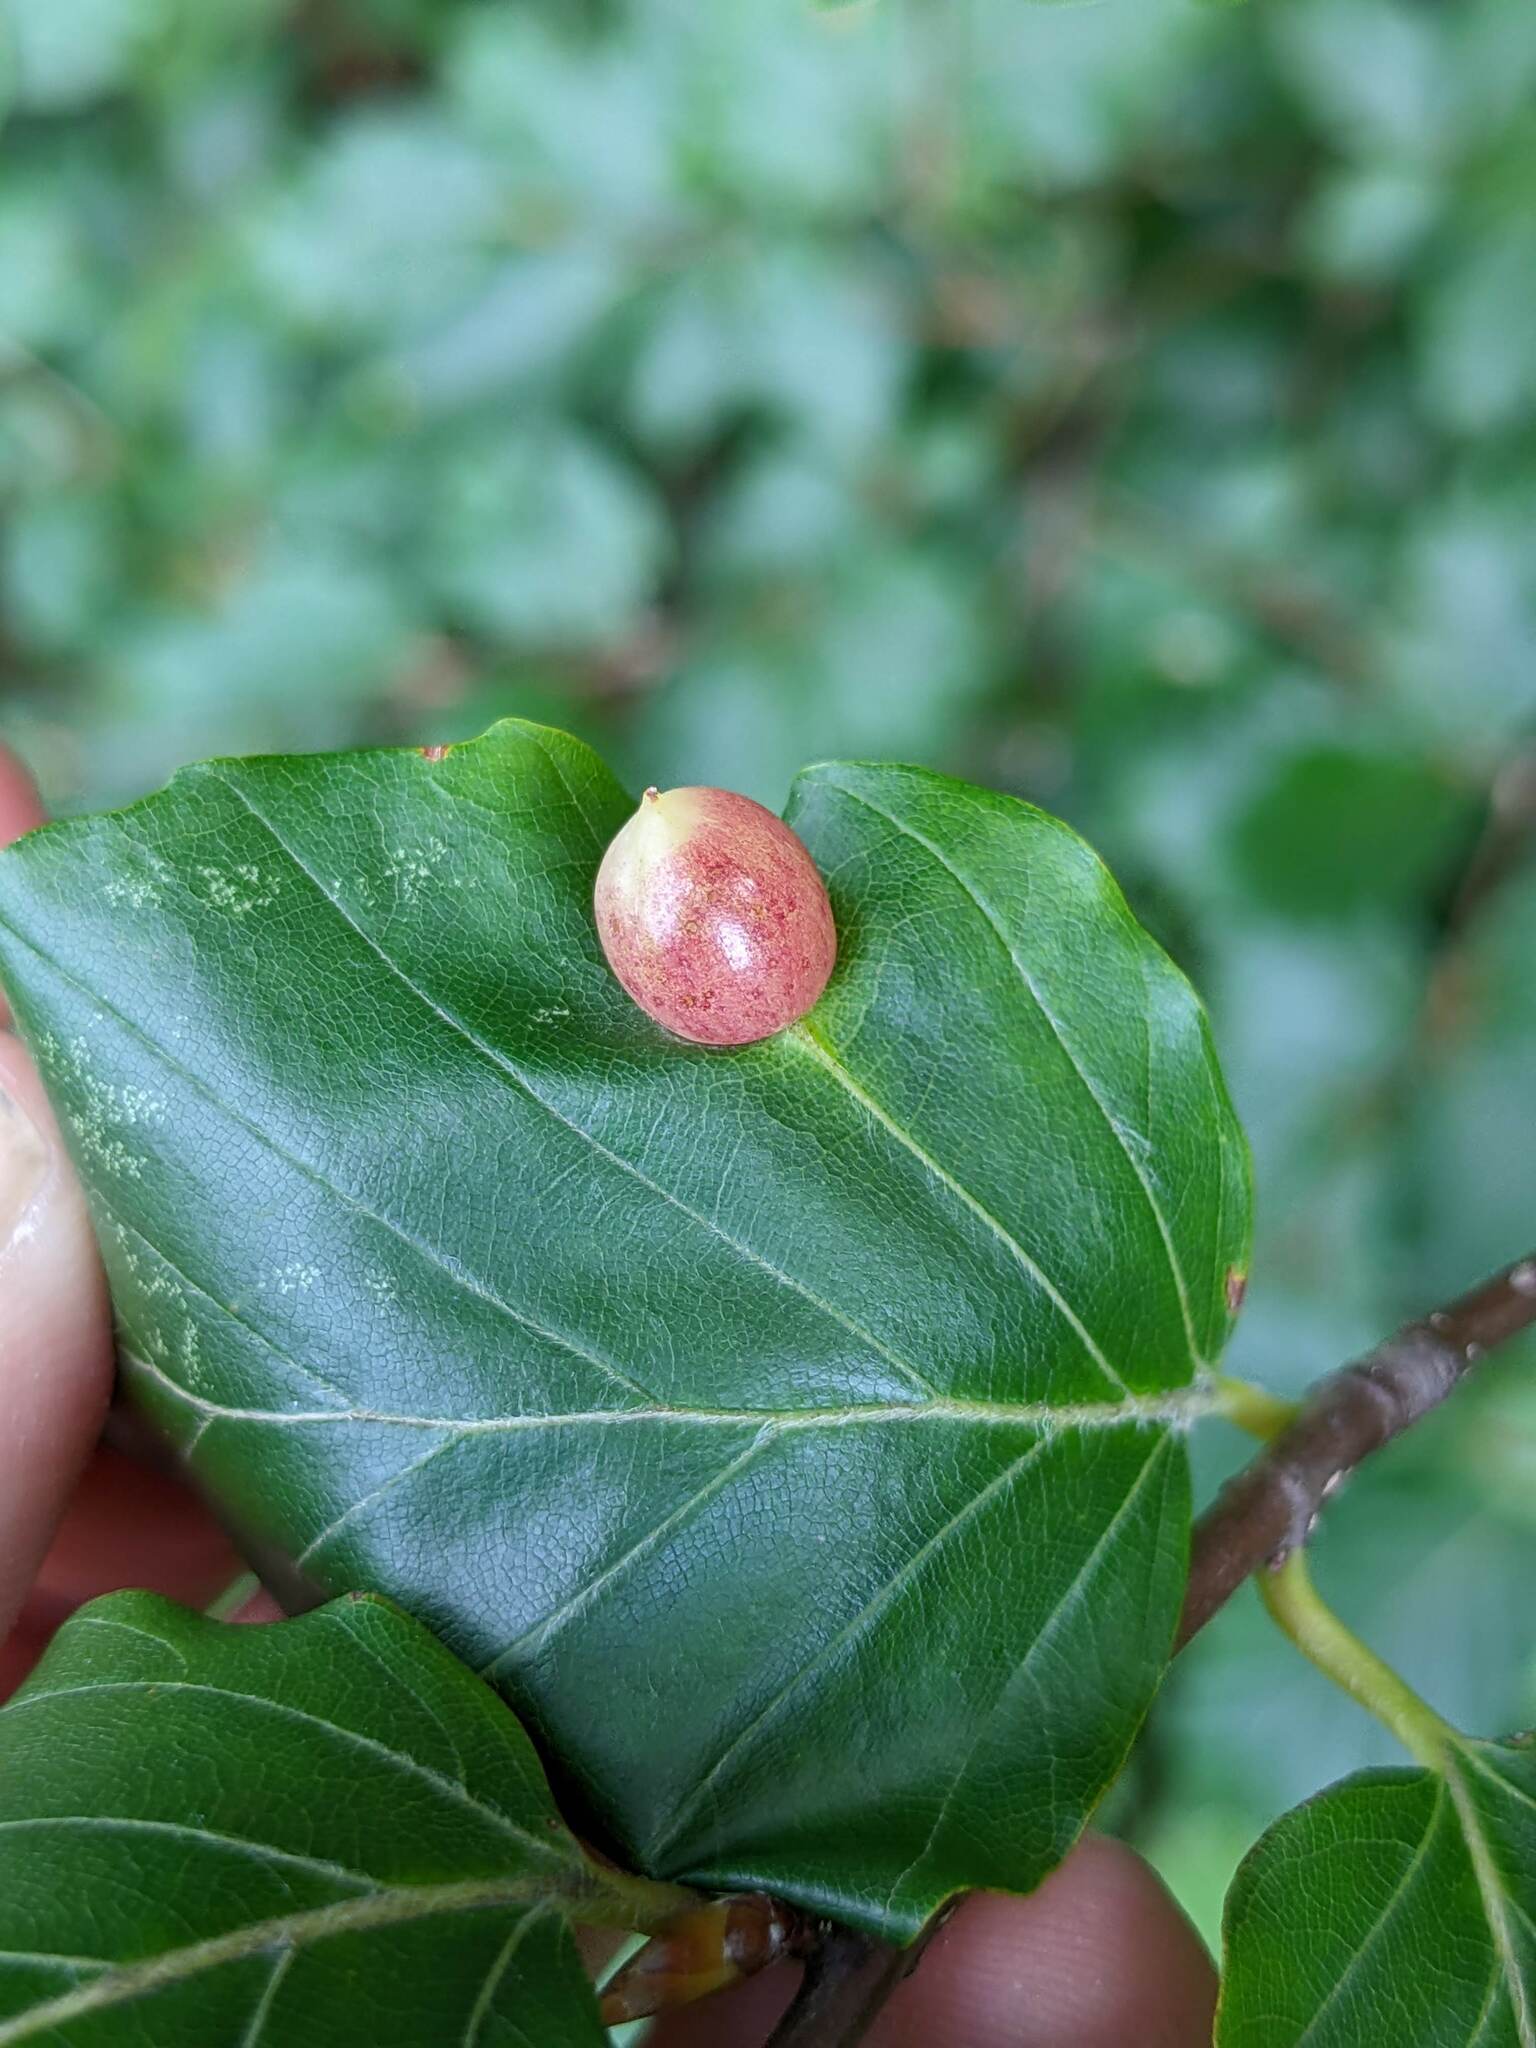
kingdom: Animalia
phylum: Arthropoda
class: Insecta
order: Diptera
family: Cecidomyiidae
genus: Mikiola
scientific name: Mikiola fagi
